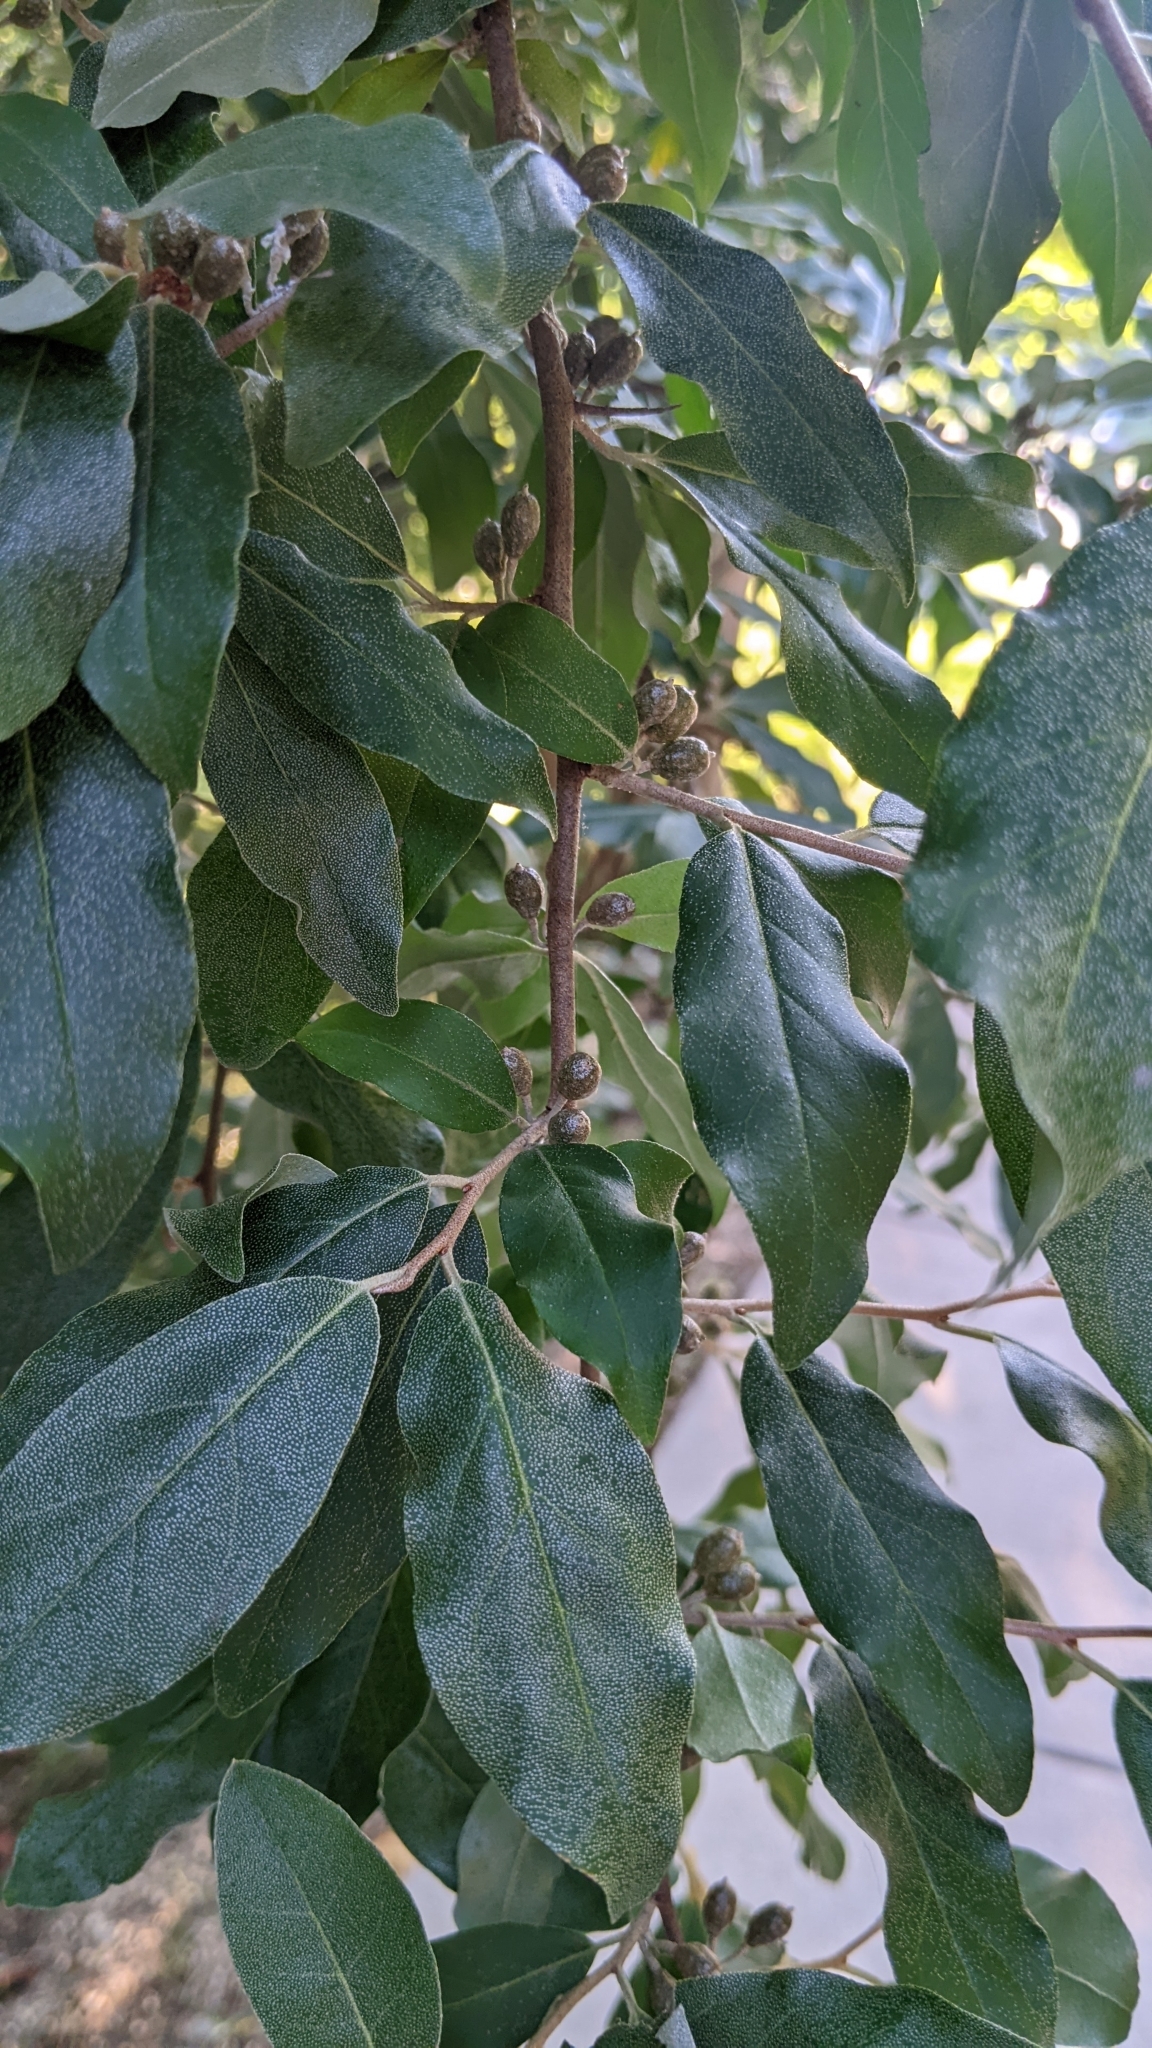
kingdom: Plantae
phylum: Tracheophyta
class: Magnoliopsida
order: Rosales
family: Elaeagnaceae
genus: Elaeagnus
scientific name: Elaeagnus umbellata
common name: Autumn olive
